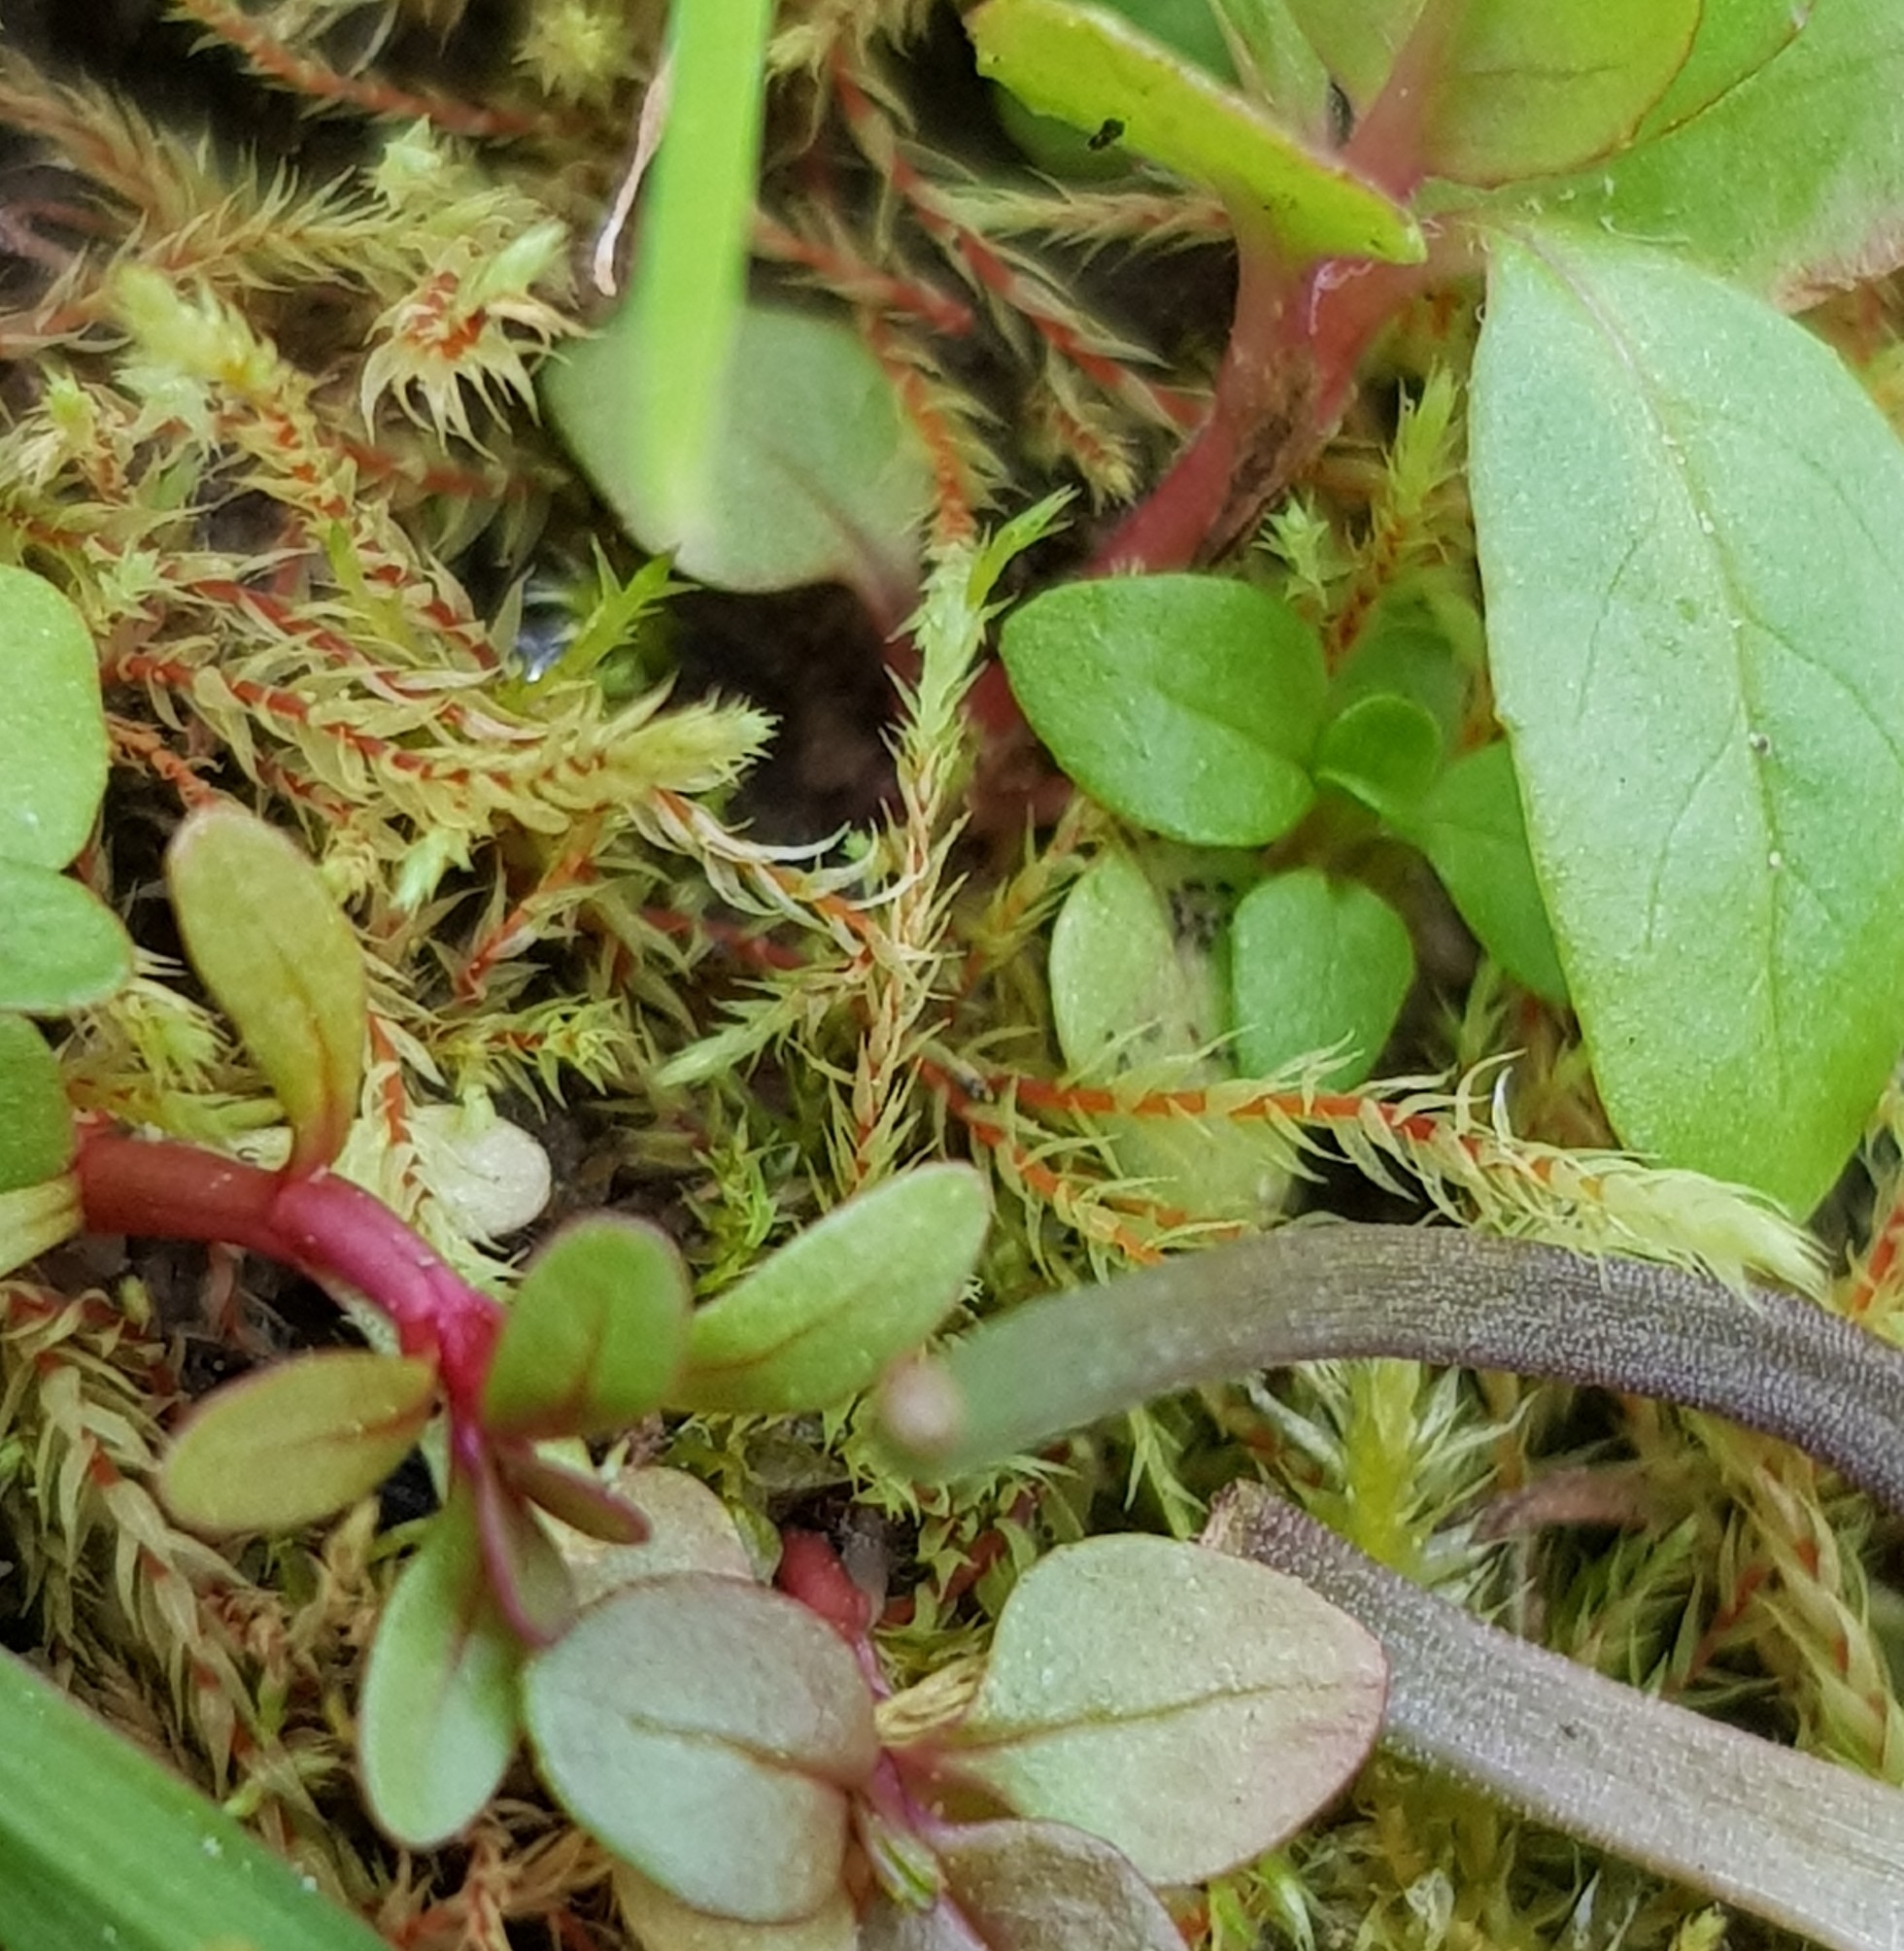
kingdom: Plantae
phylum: Bryophyta
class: Bryopsida
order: Bryales
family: Mniaceae
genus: Pohlia
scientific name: Pohlia wahlenbergii
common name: Wahlenberg's nodding moss
